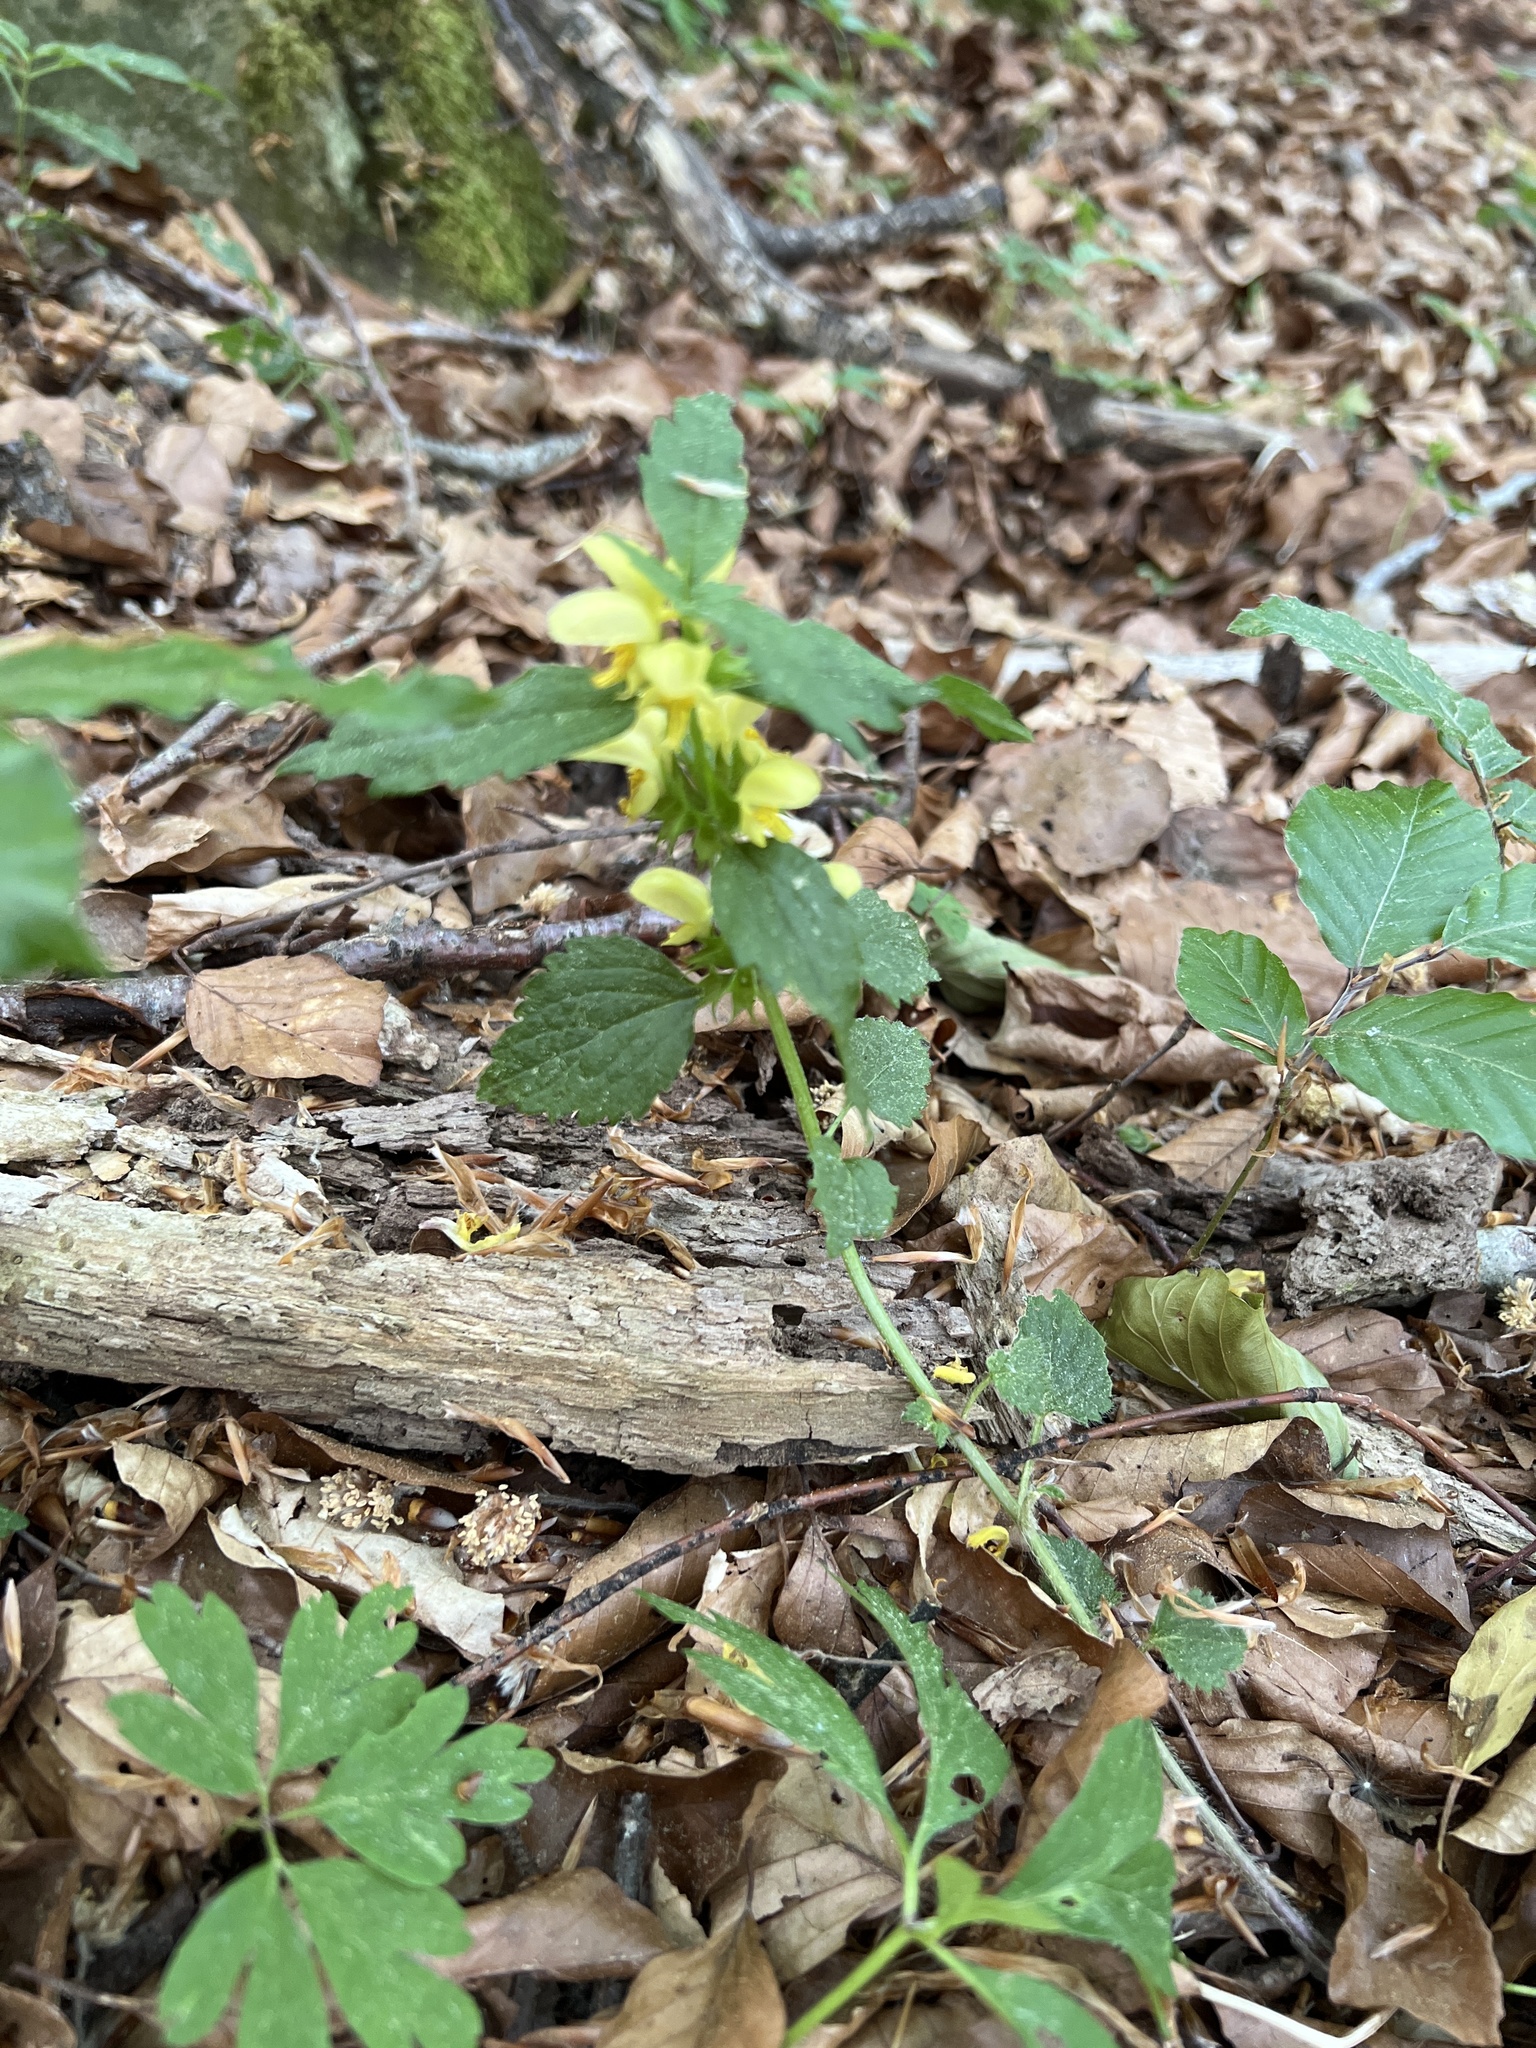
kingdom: Plantae
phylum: Tracheophyta
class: Magnoliopsida
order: Lamiales
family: Lamiaceae
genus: Lamium
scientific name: Lamium galeobdolon
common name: Yellow archangel
